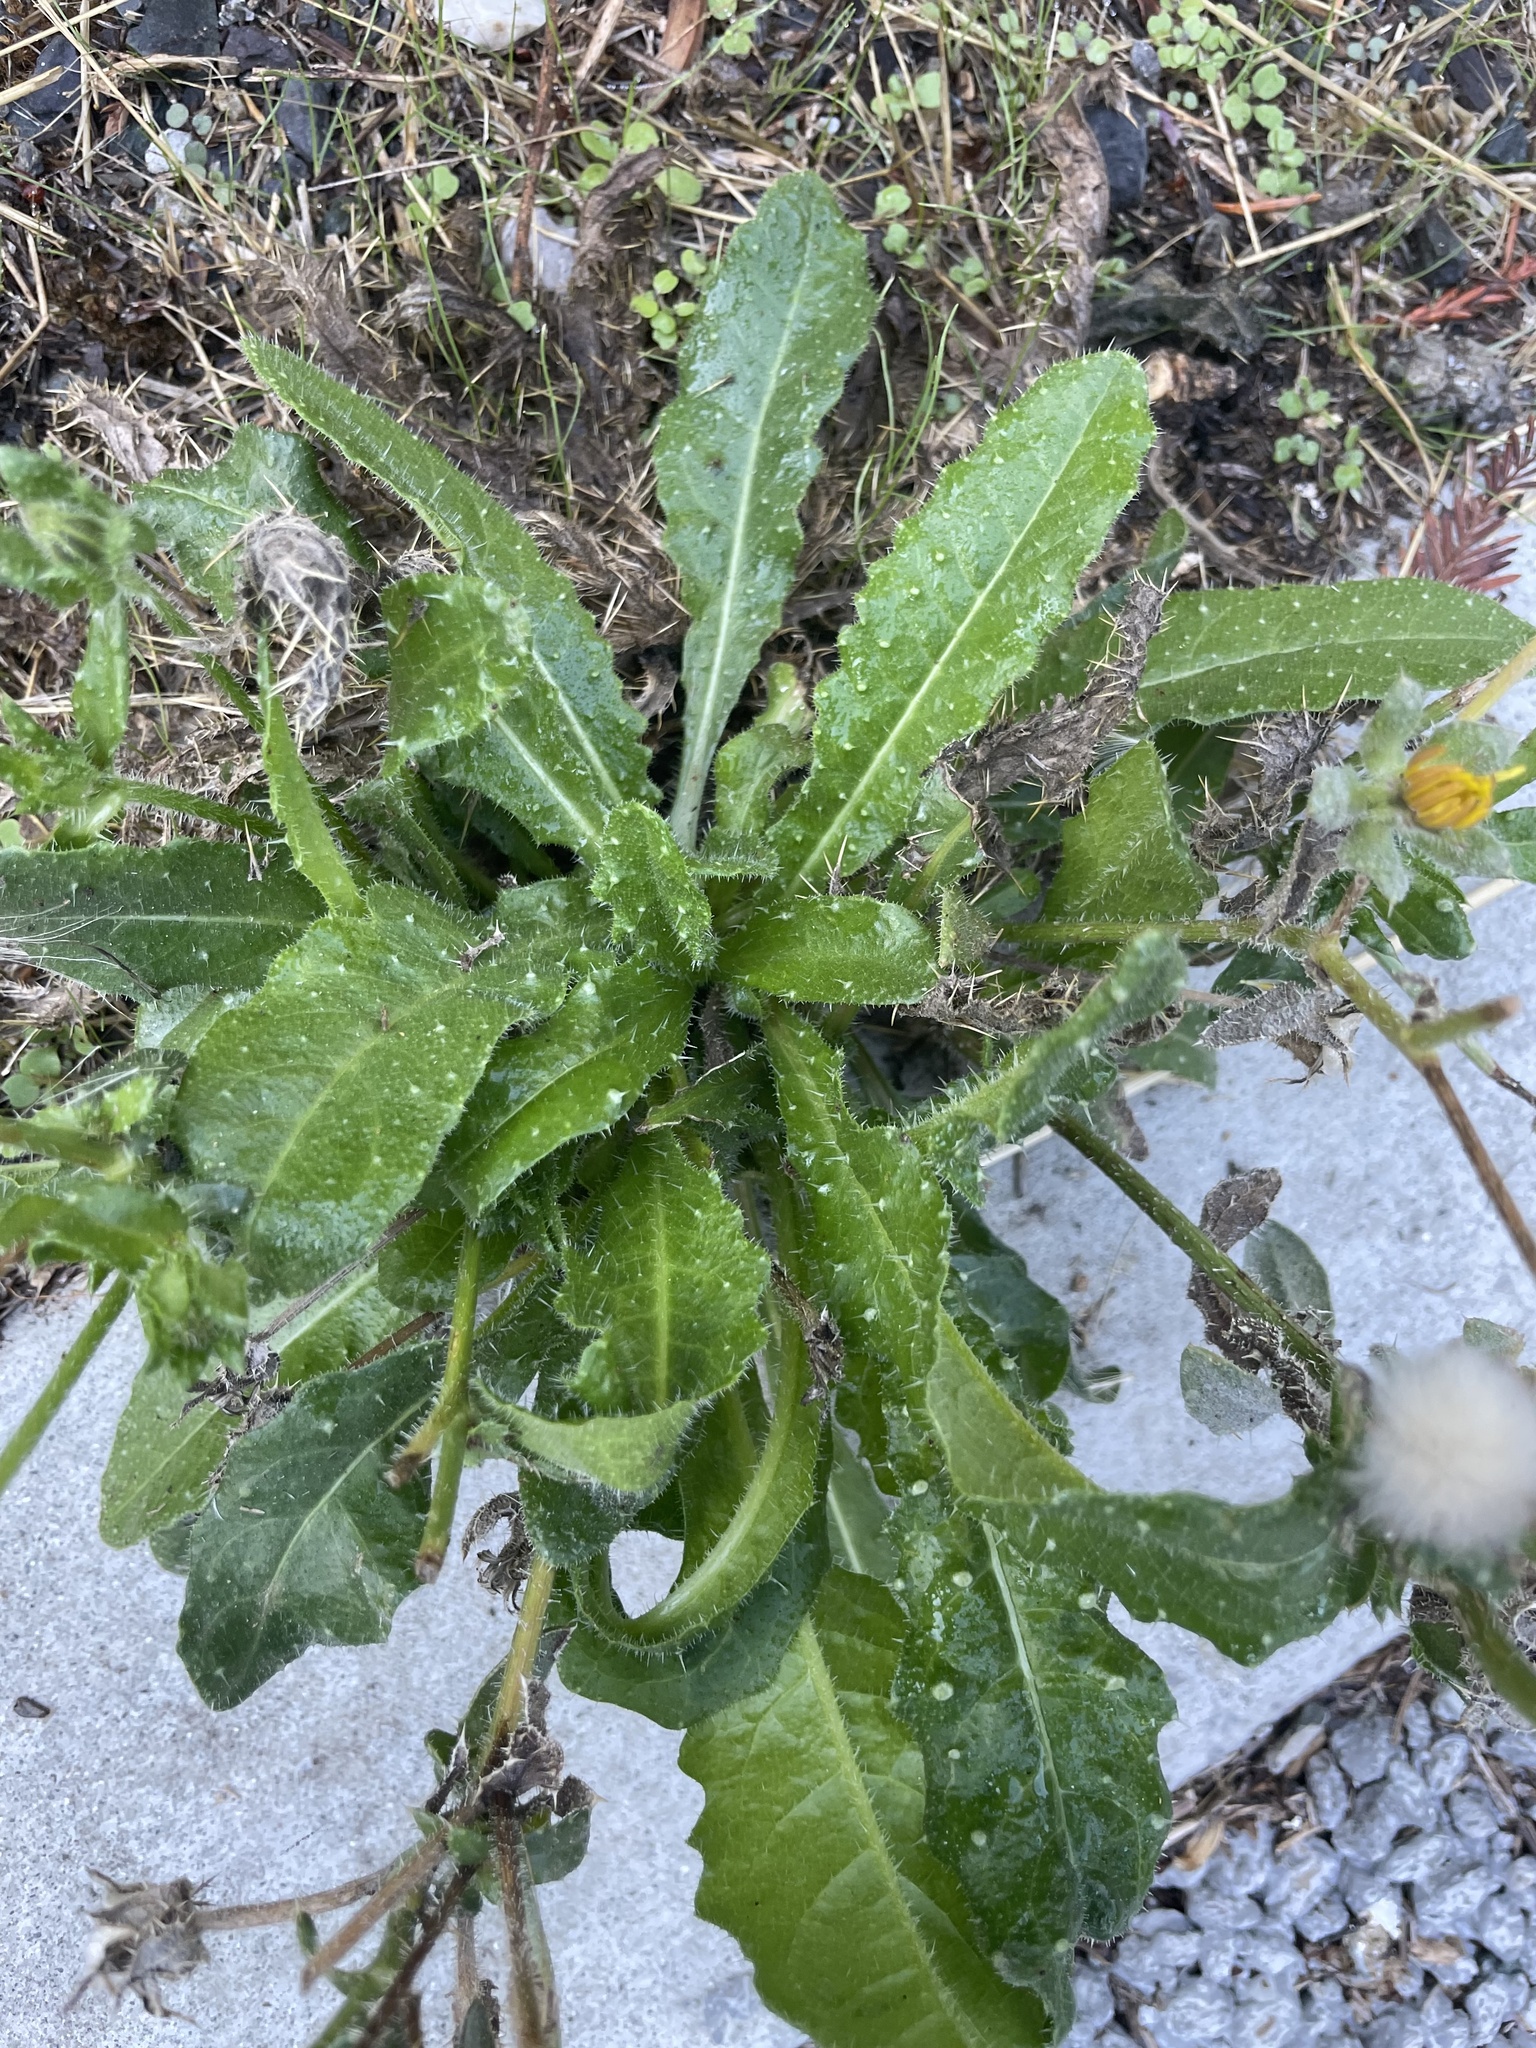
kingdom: Plantae
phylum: Tracheophyta
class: Magnoliopsida
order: Asterales
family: Asteraceae
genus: Helminthotheca
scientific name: Helminthotheca echioides
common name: Ox-tongue
